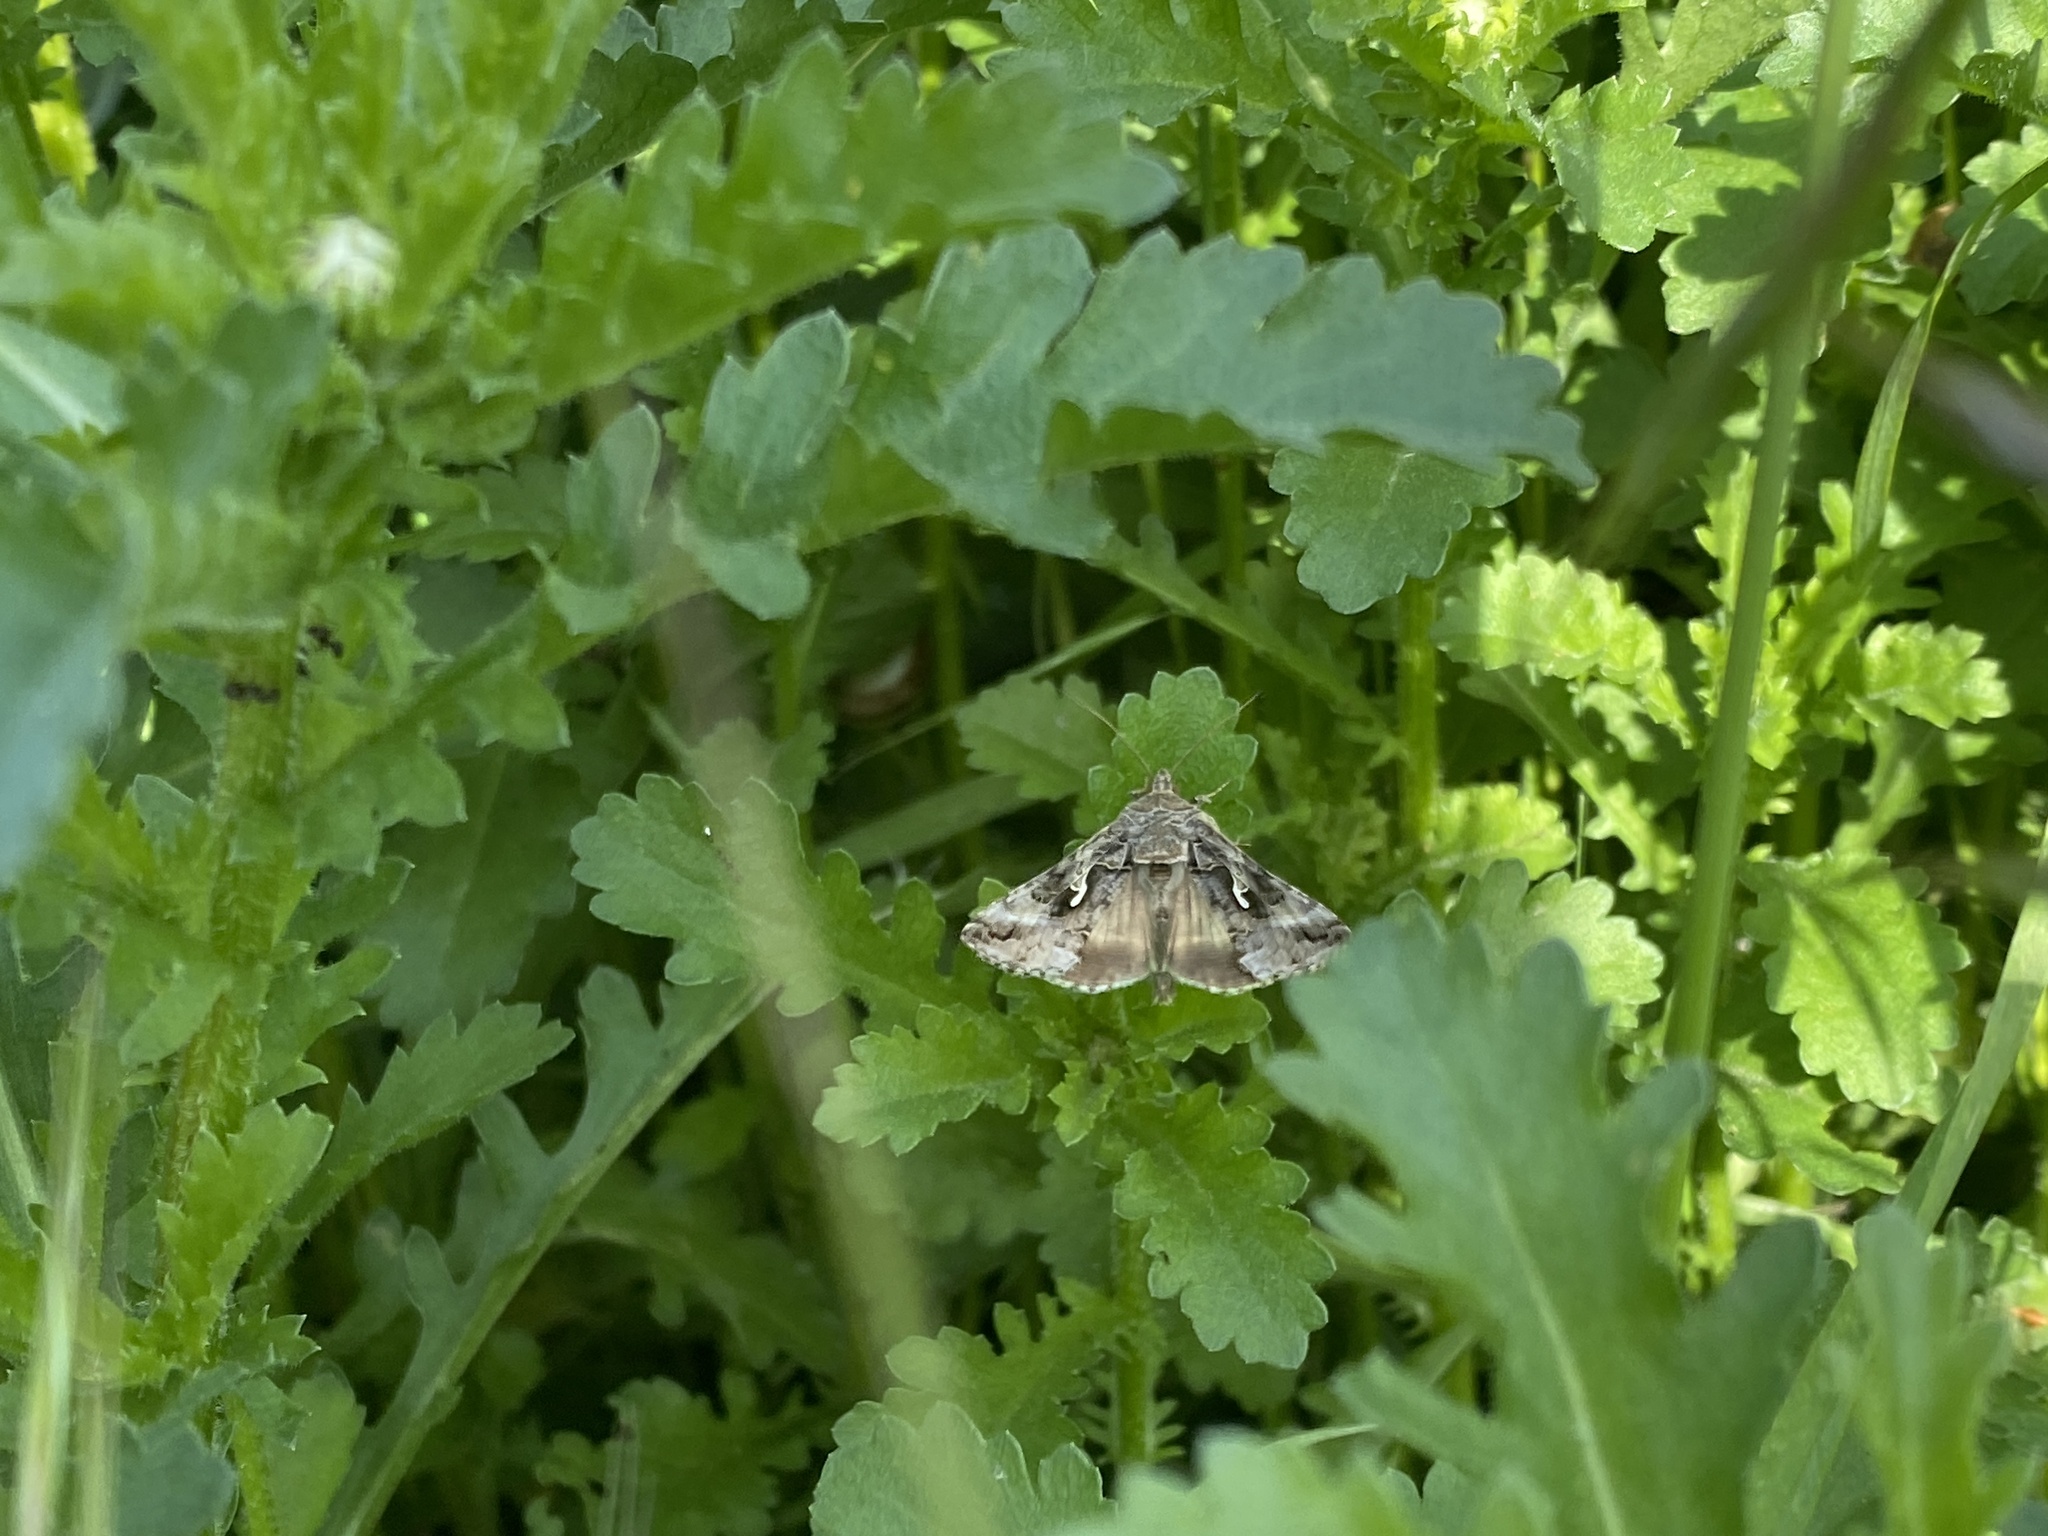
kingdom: Animalia
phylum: Arthropoda
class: Insecta
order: Lepidoptera
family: Noctuidae
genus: Autographa
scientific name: Autographa gamma
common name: Silver y
